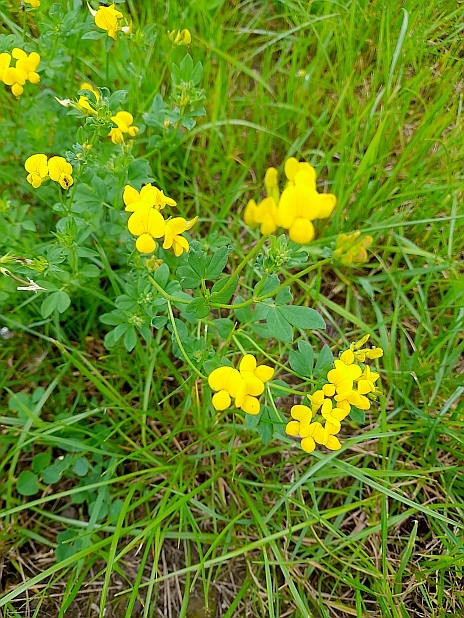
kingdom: Plantae
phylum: Tracheophyta
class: Magnoliopsida
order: Fabales
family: Fabaceae
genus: Lotus
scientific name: Lotus corniculatus
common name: Common bird's-foot-trefoil
